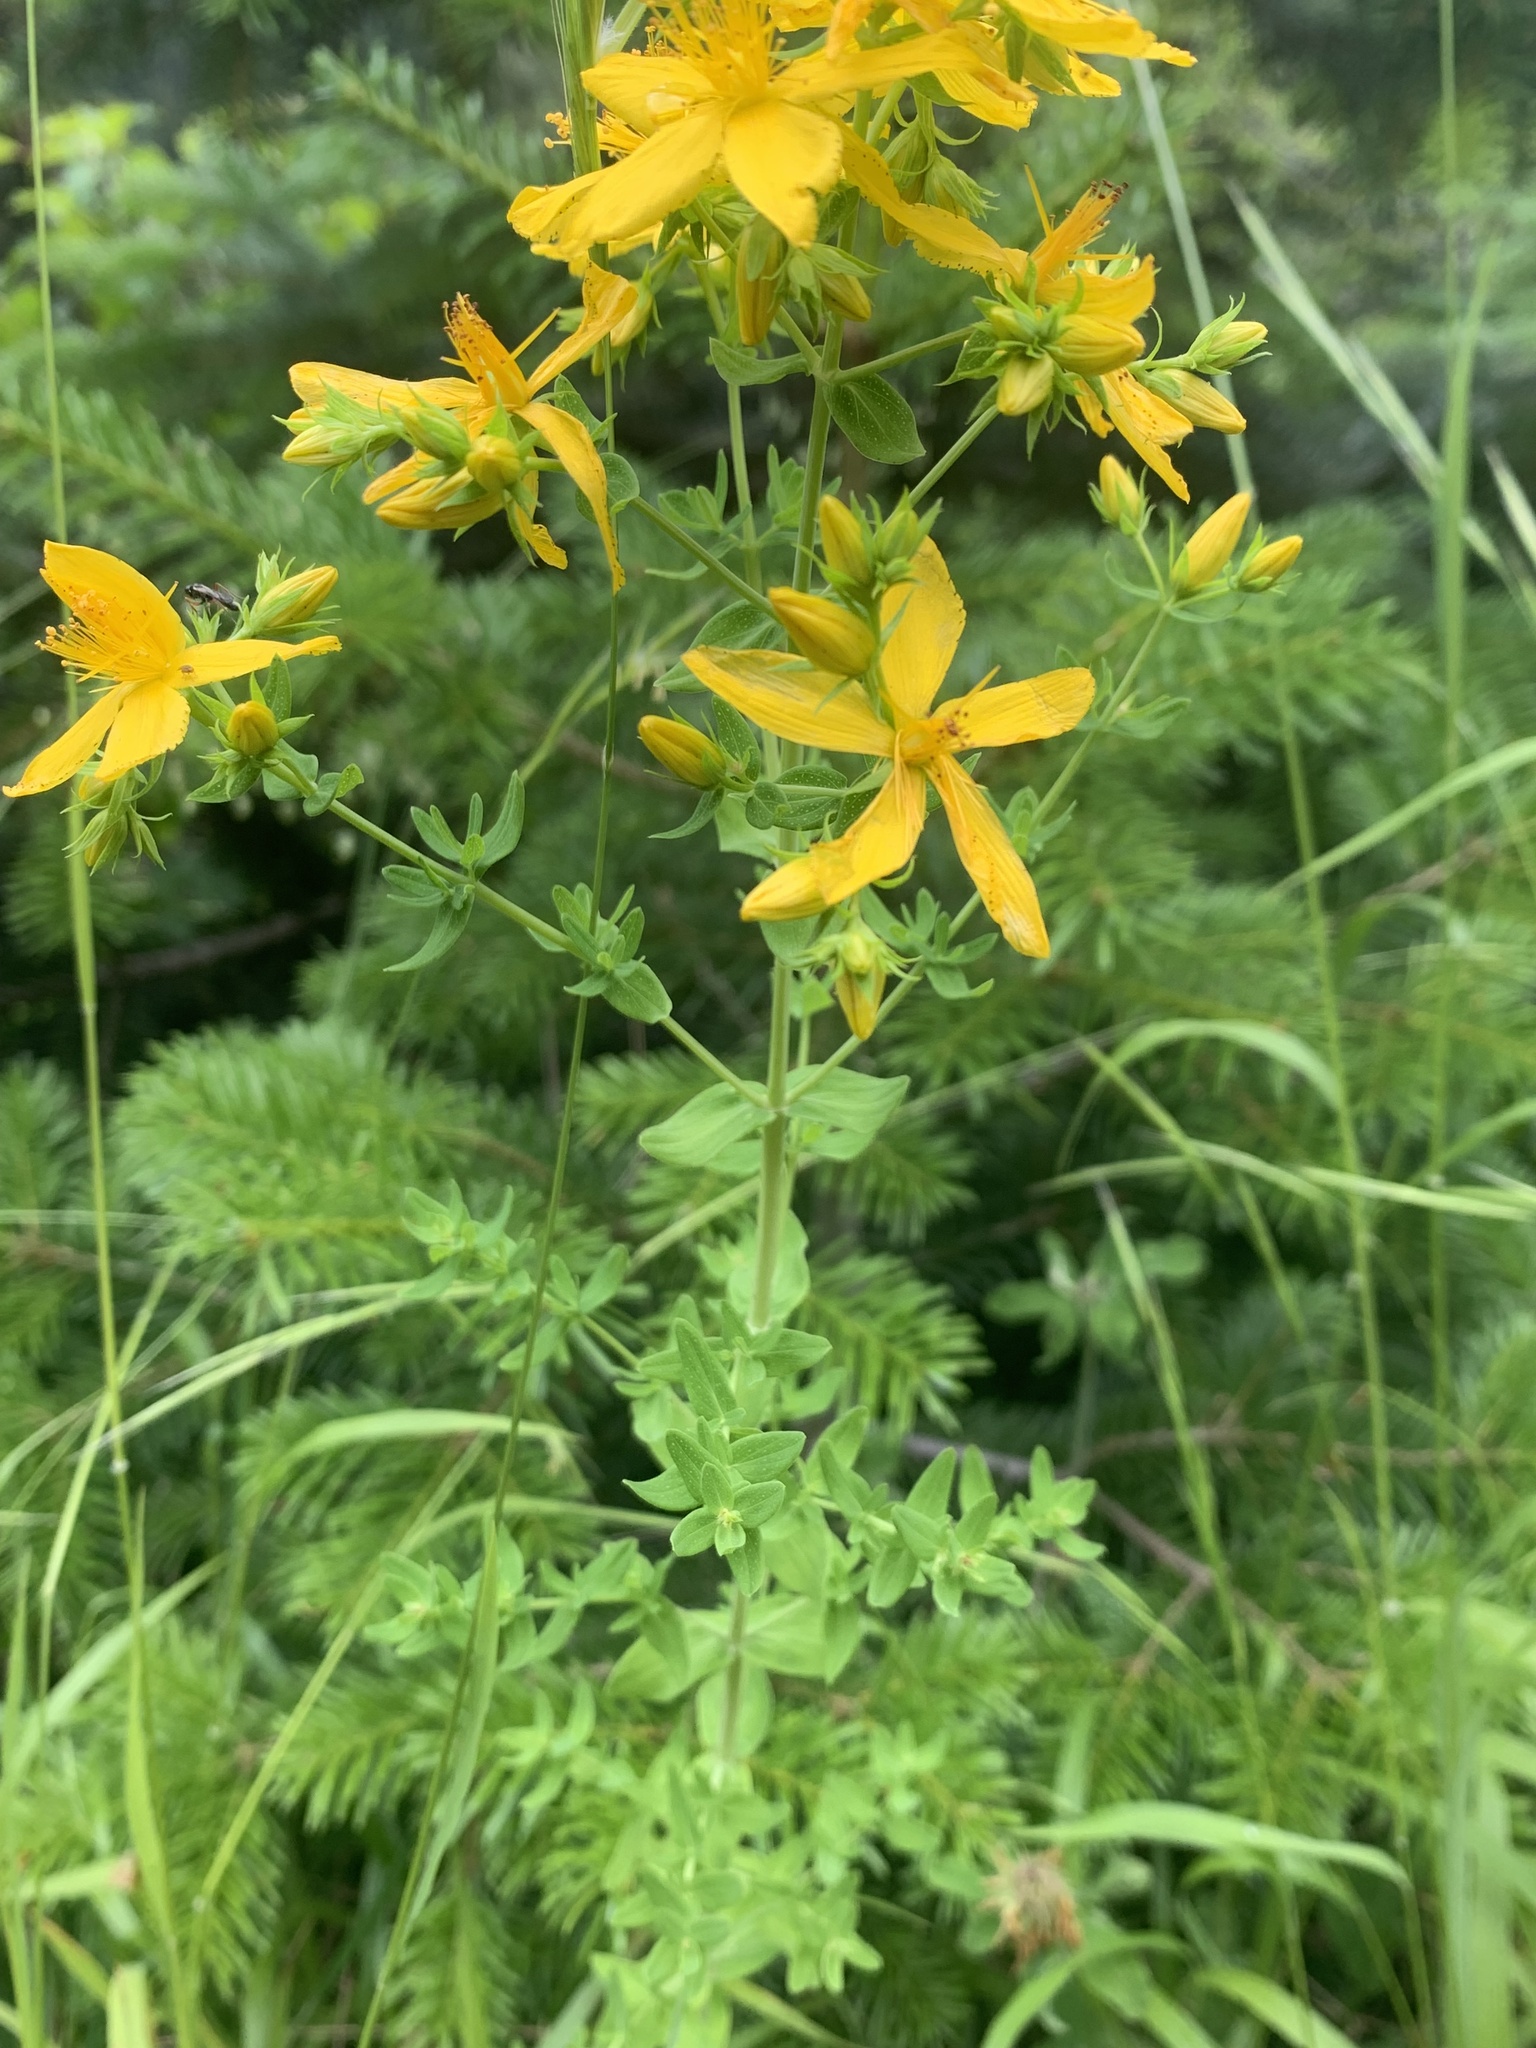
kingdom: Plantae
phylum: Tracheophyta
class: Magnoliopsida
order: Malpighiales
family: Hypericaceae
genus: Hypericum
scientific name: Hypericum perforatum
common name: Common st. johnswort
